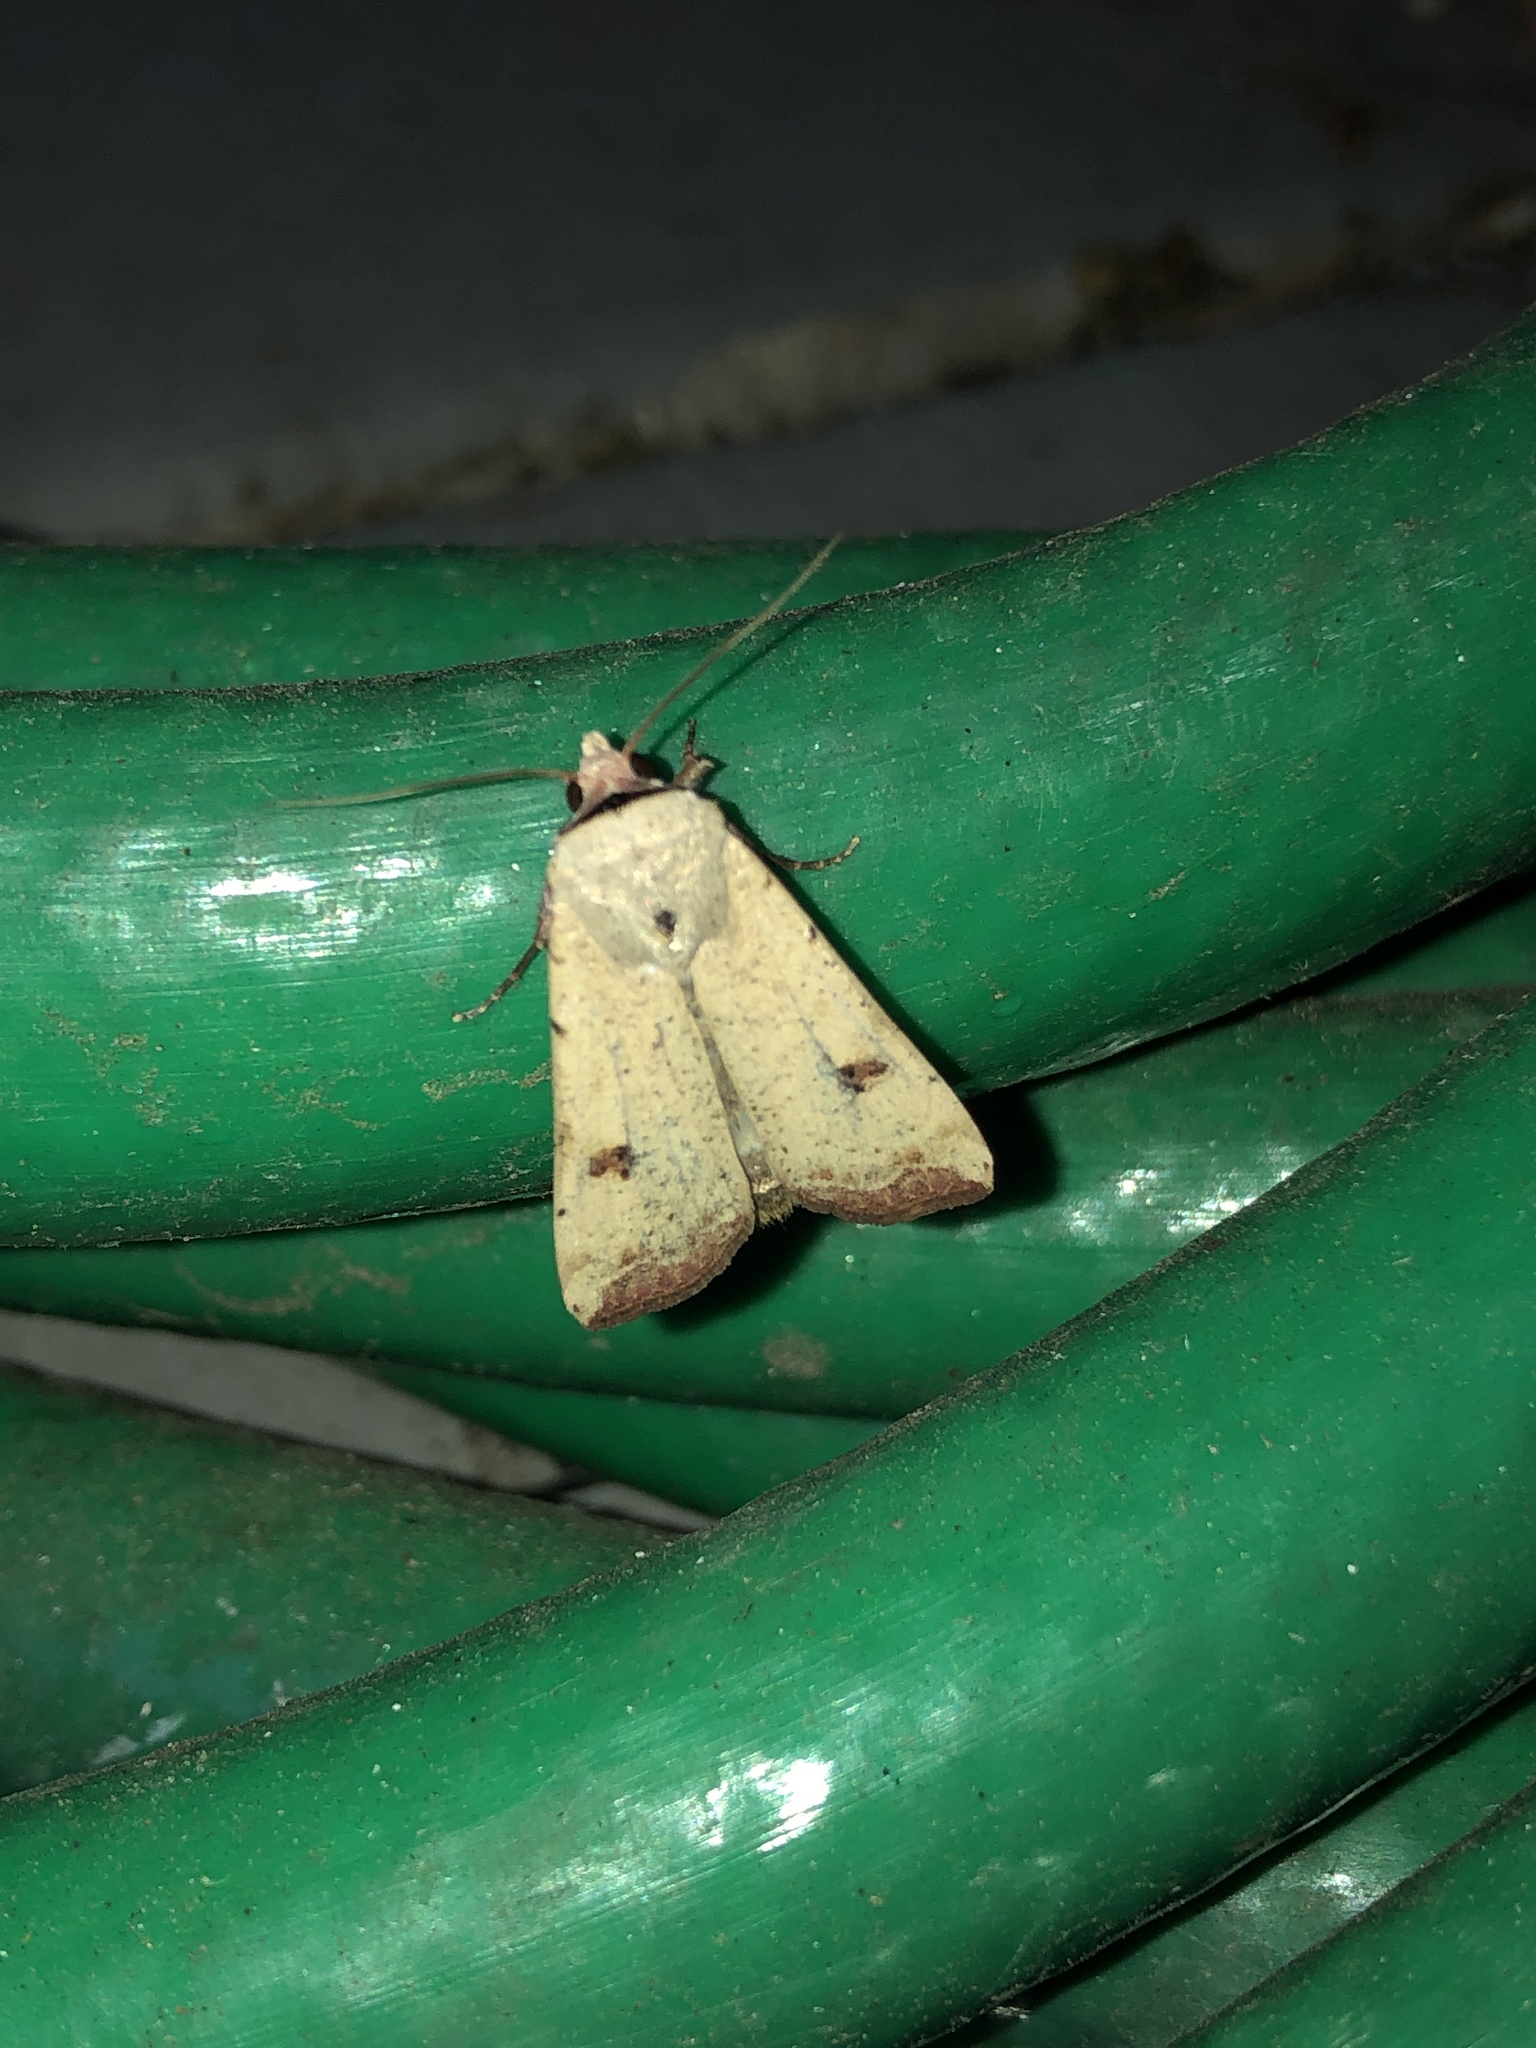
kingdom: Animalia
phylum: Arthropoda
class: Insecta
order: Lepidoptera
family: Noctuidae
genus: Anicla
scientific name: Anicla infecta
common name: Green cutworm
